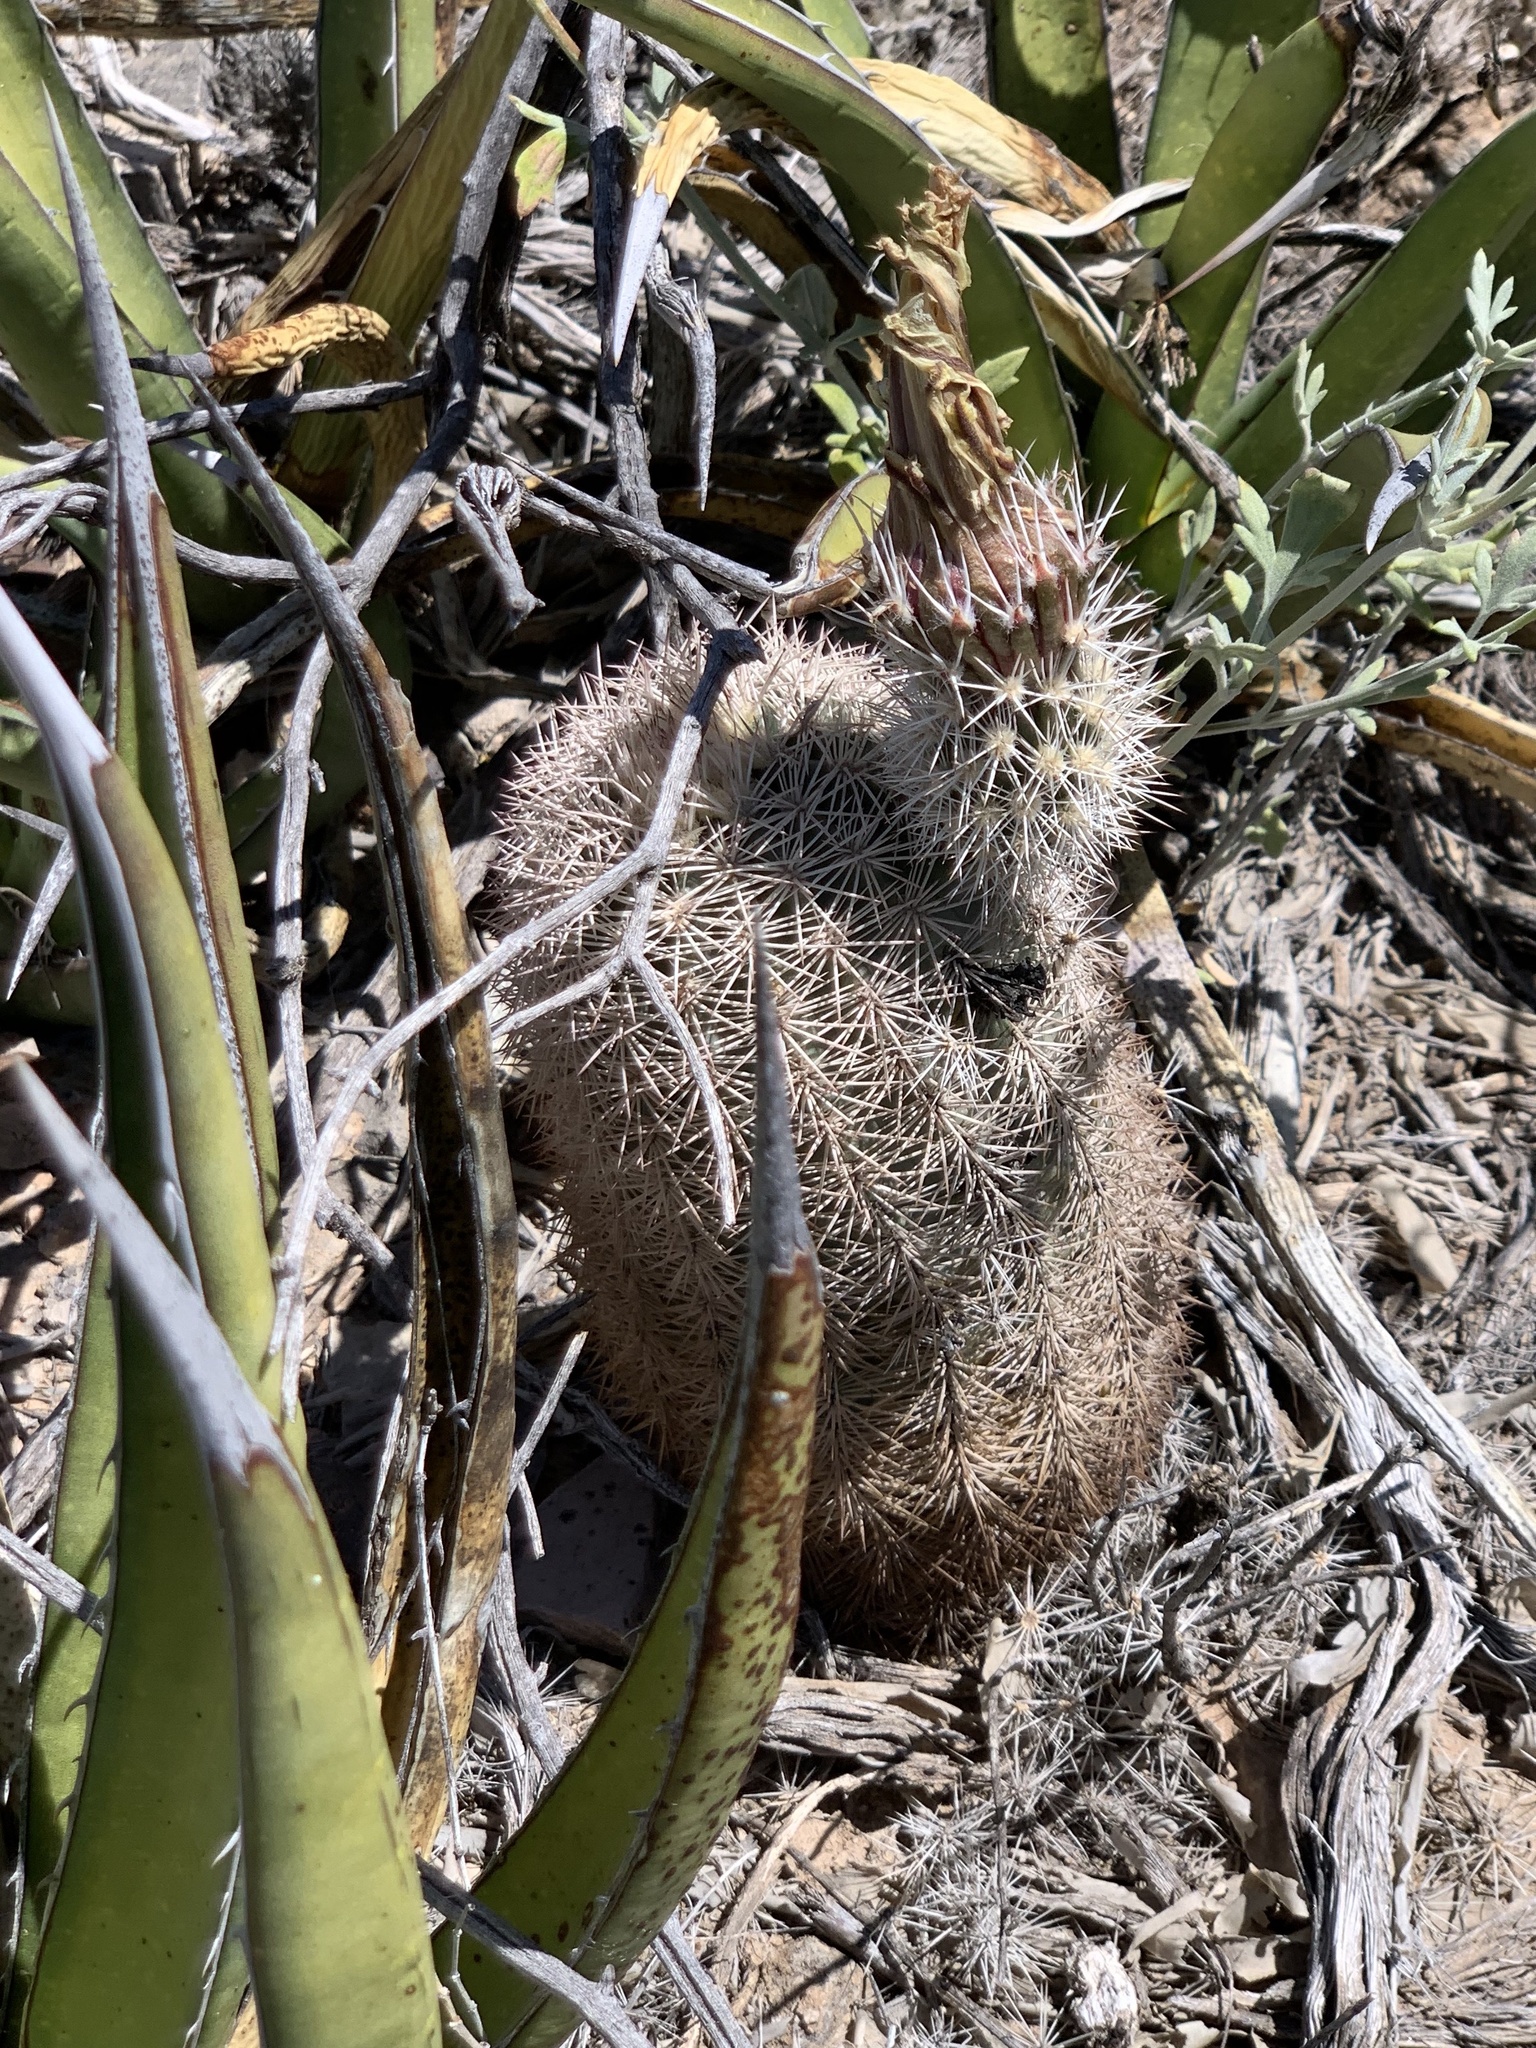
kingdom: Plantae
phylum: Tracheophyta
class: Magnoliopsida
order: Caryophyllales
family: Cactaceae
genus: Echinocereus
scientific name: Echinocereus dasyacanthus
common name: Spiny hedgehog cactus
